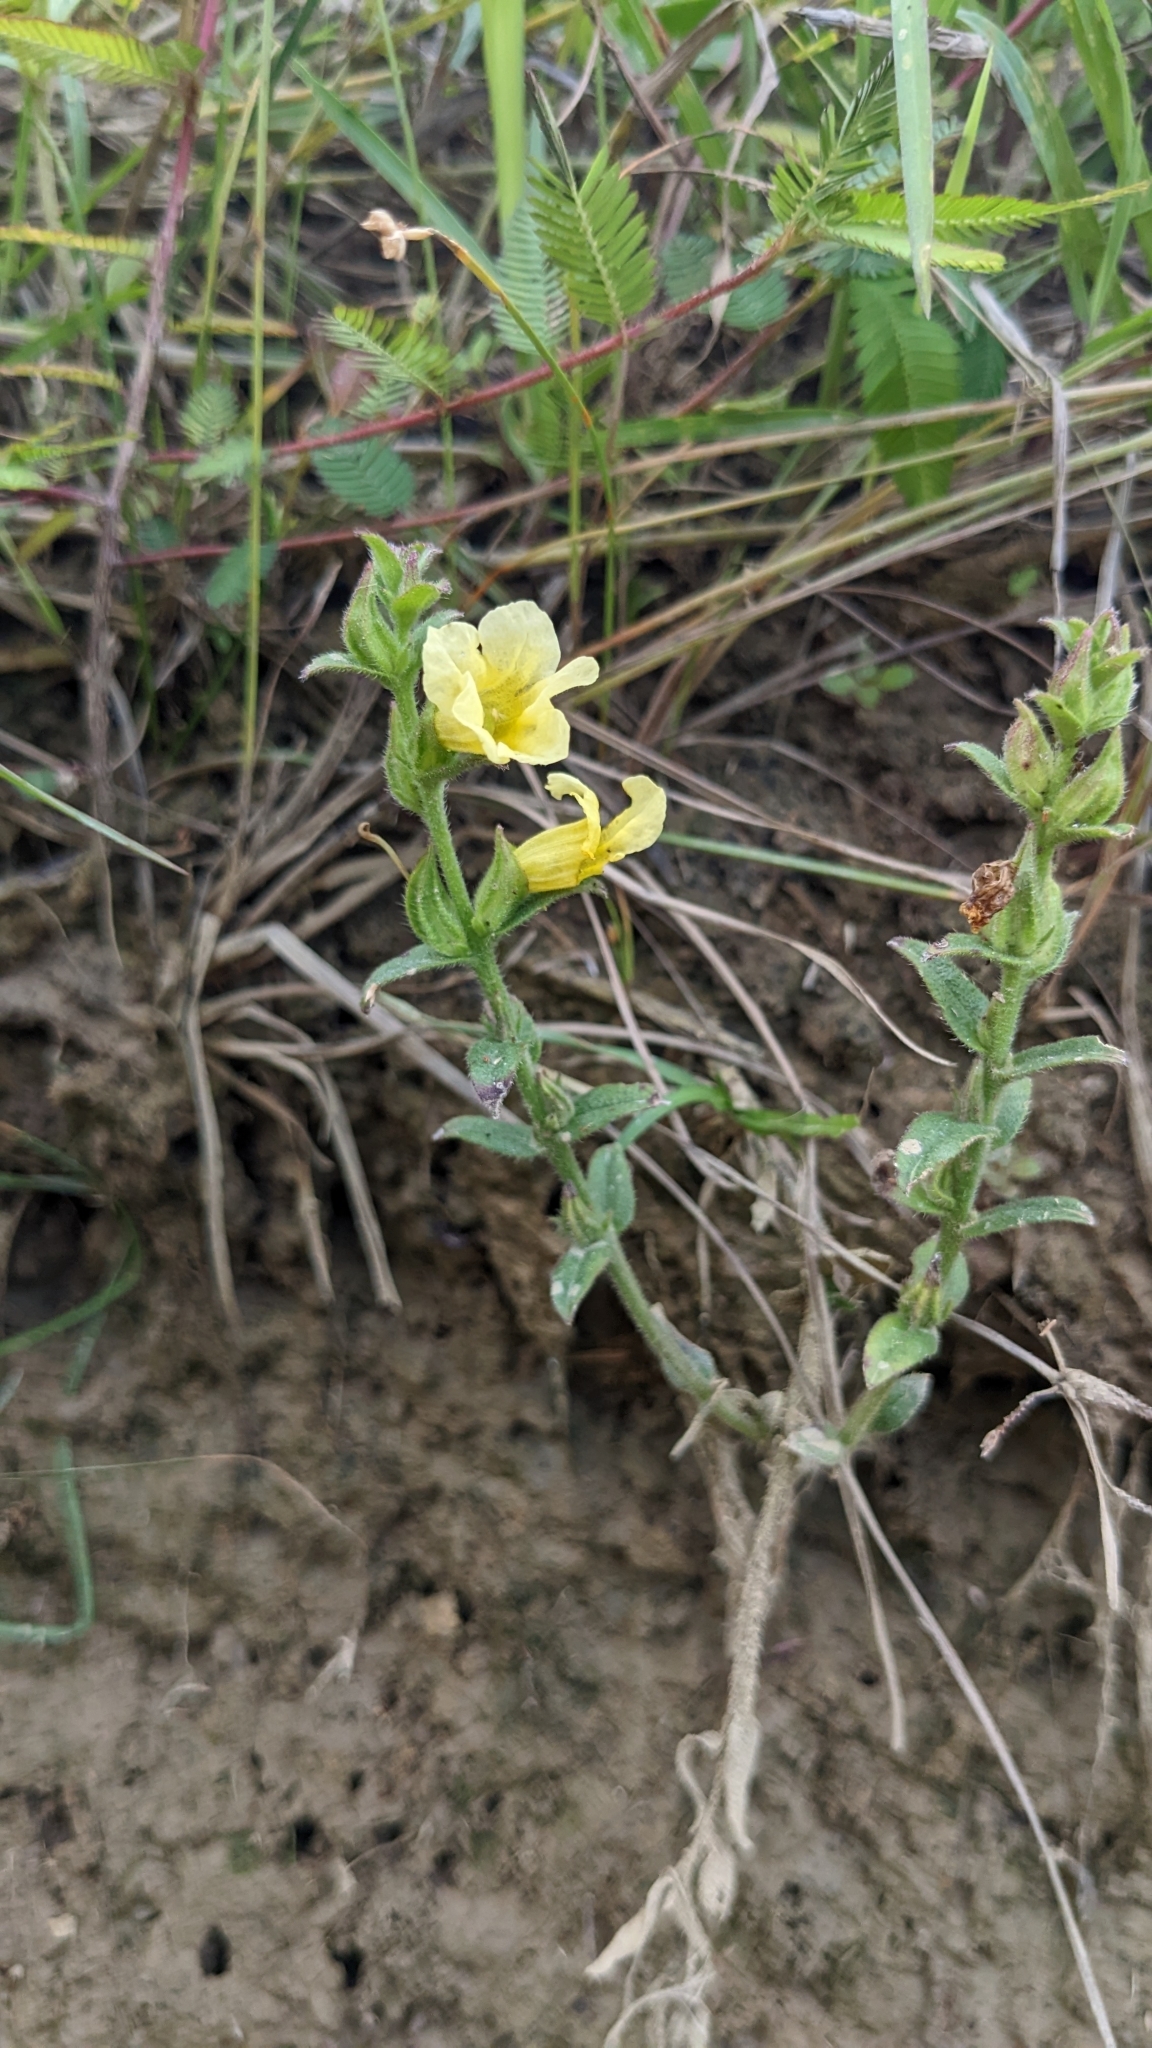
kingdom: Plantae
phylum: Tracheophyta
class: Magnoliopsida
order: Lamiales
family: Orobanchaceae
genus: Centranthera
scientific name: Centranthera cochinchinensis
